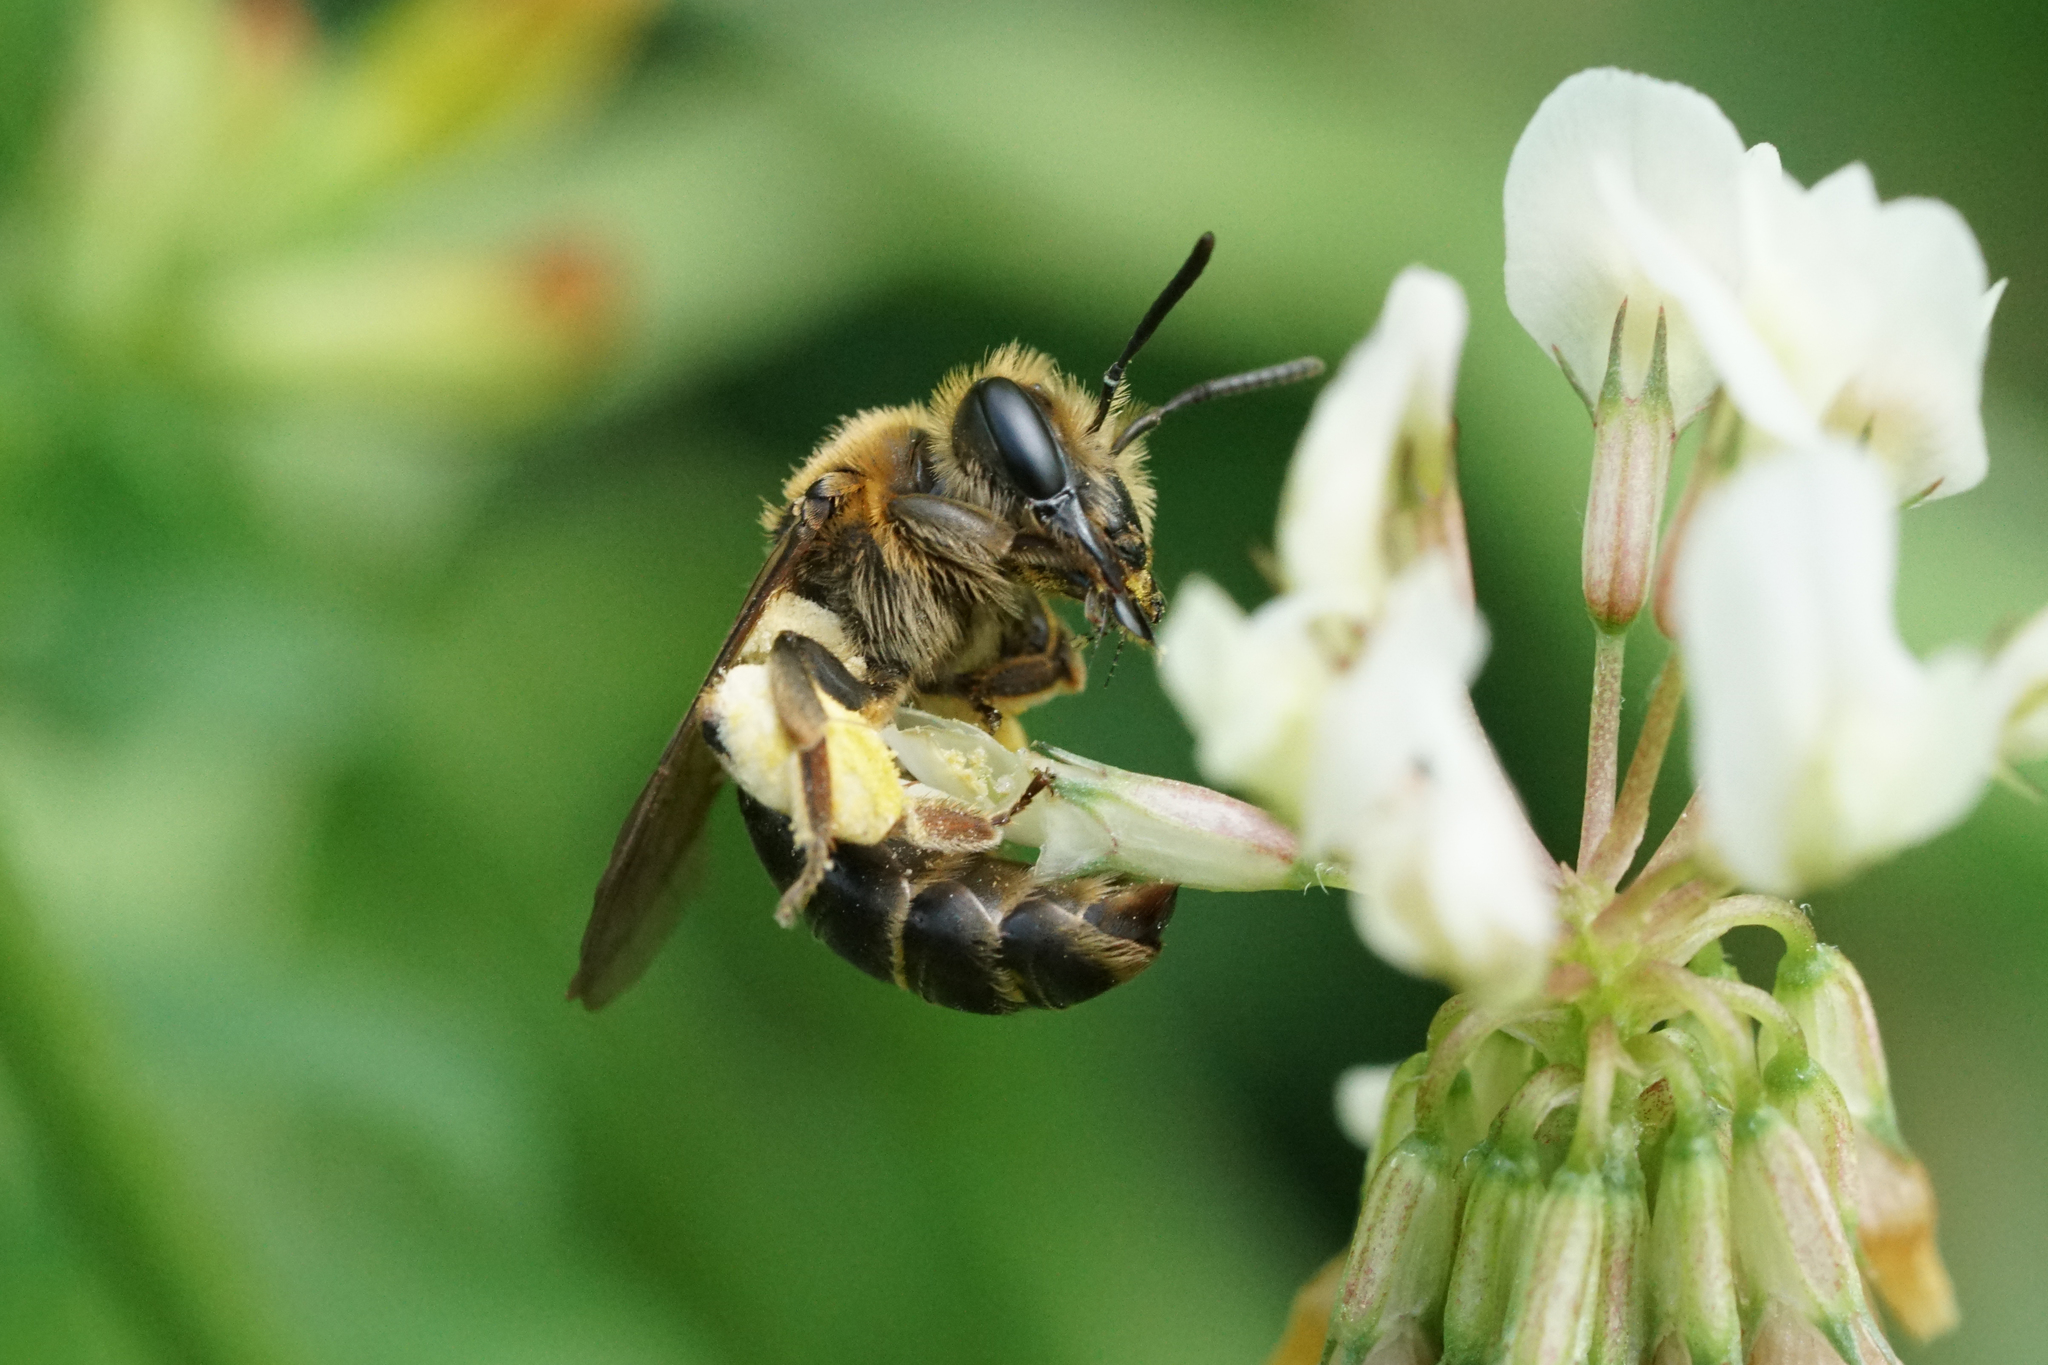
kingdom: Animalia
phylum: Arthropoda
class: Insecta
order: Hymenoptera
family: Andrenidae
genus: Andrena
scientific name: Andrena wilkella
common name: Wilke's mining bee
